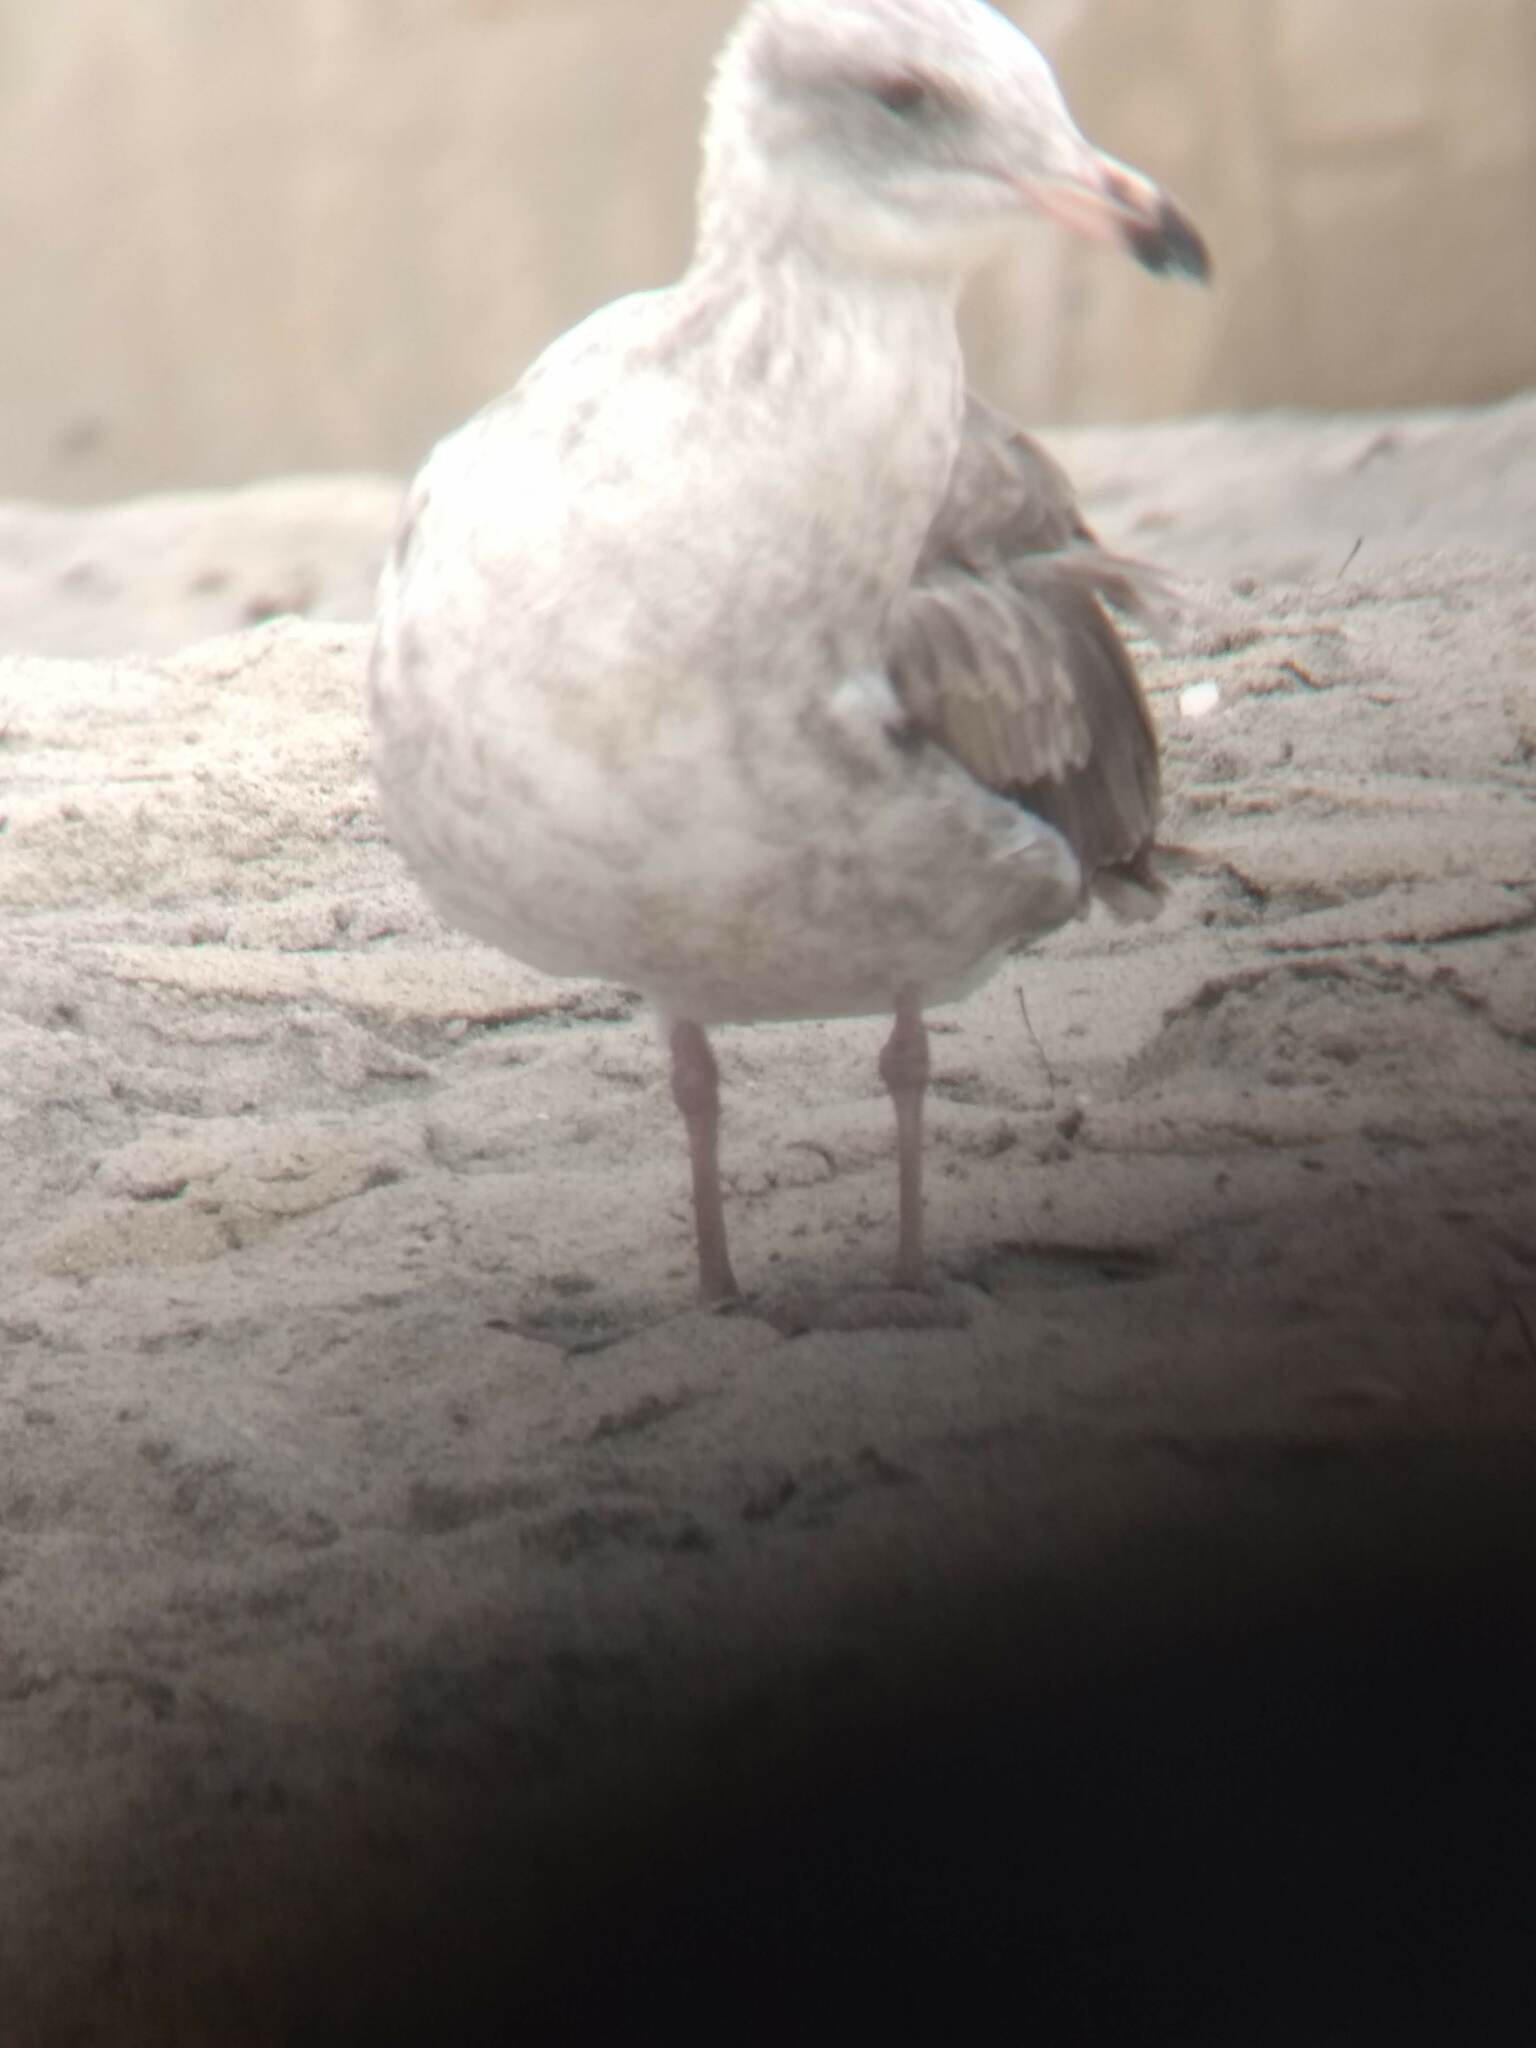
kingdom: Animalia
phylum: Chordata
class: Aves
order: Charadriiformes
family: Laridae
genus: Larus
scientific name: Larus occidentalis
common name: Western gull
